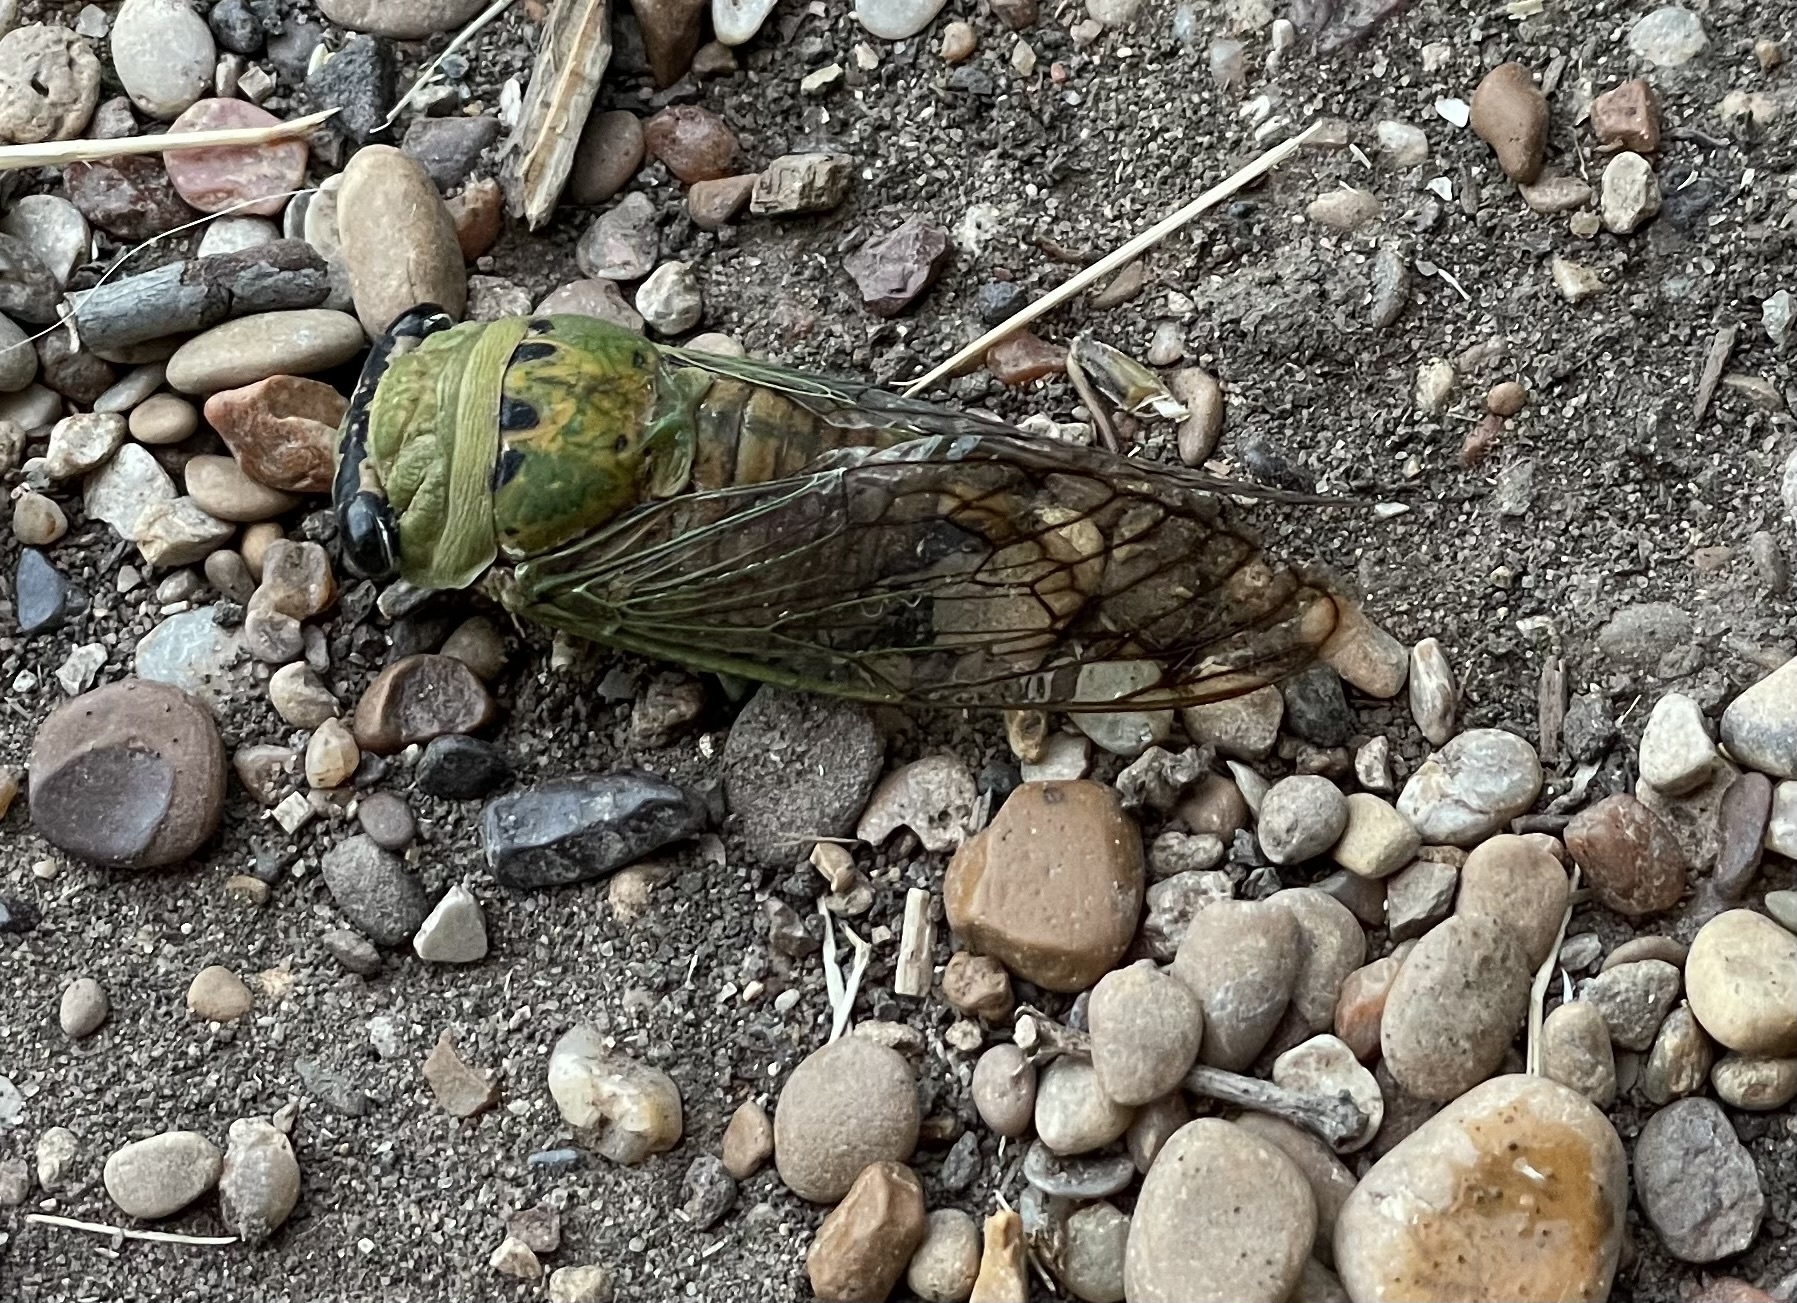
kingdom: Animalia
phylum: Arthropoda
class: Insecta
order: Hemiptera
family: Cicadidae
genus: Neotibicen
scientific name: Neotibicen superbus
